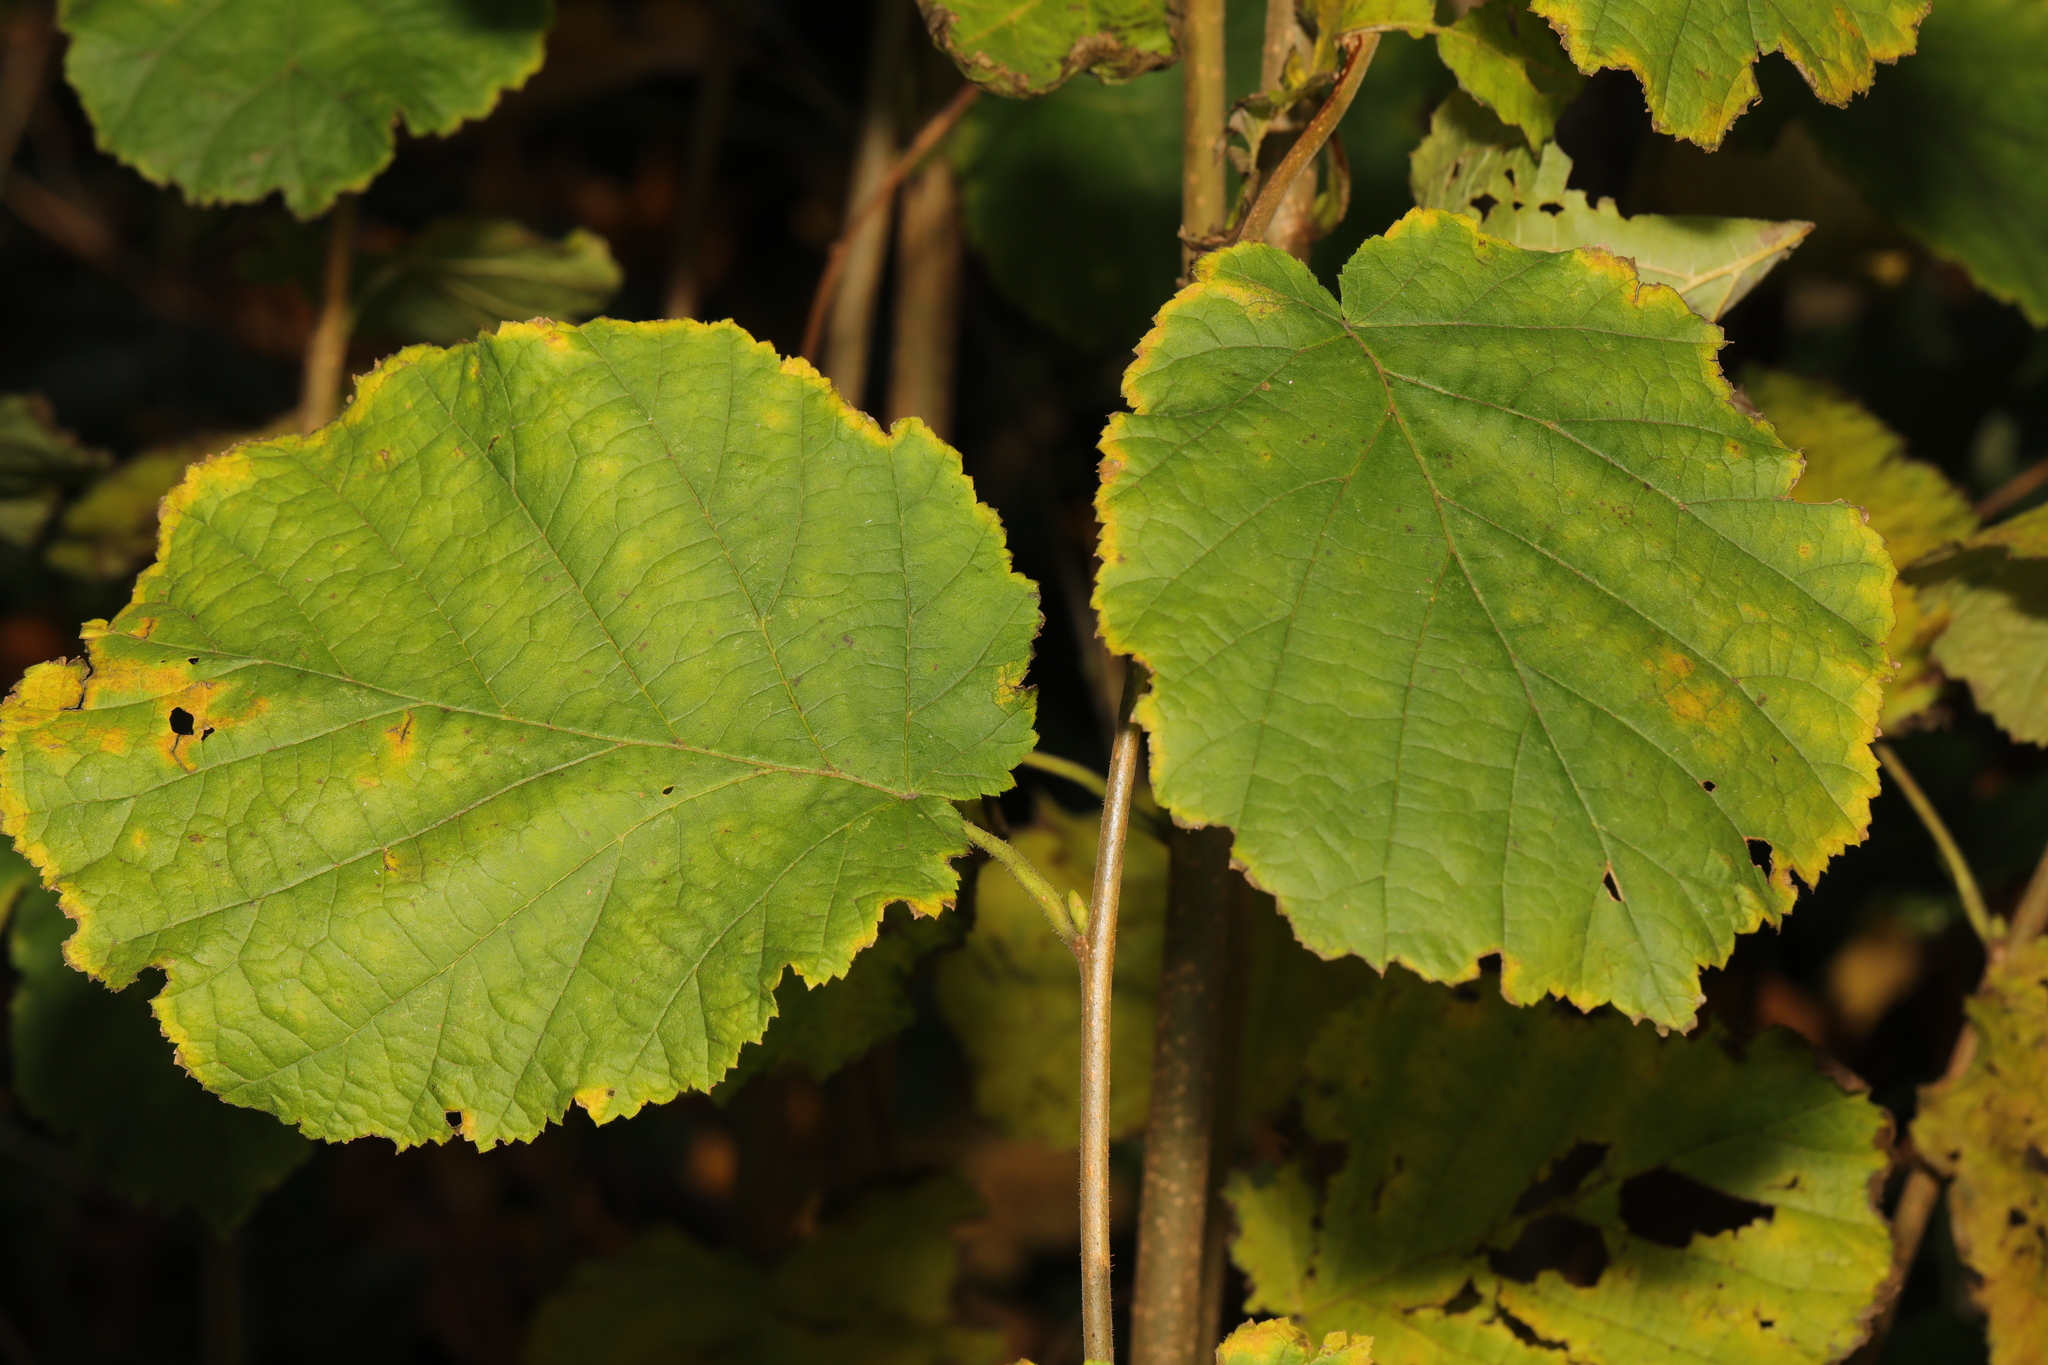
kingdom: Plantae
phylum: Tracheophyta
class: Magnoliopsida
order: Fagales
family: Betulaceae
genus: Corylus
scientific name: Corylus avellana
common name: European hazel
